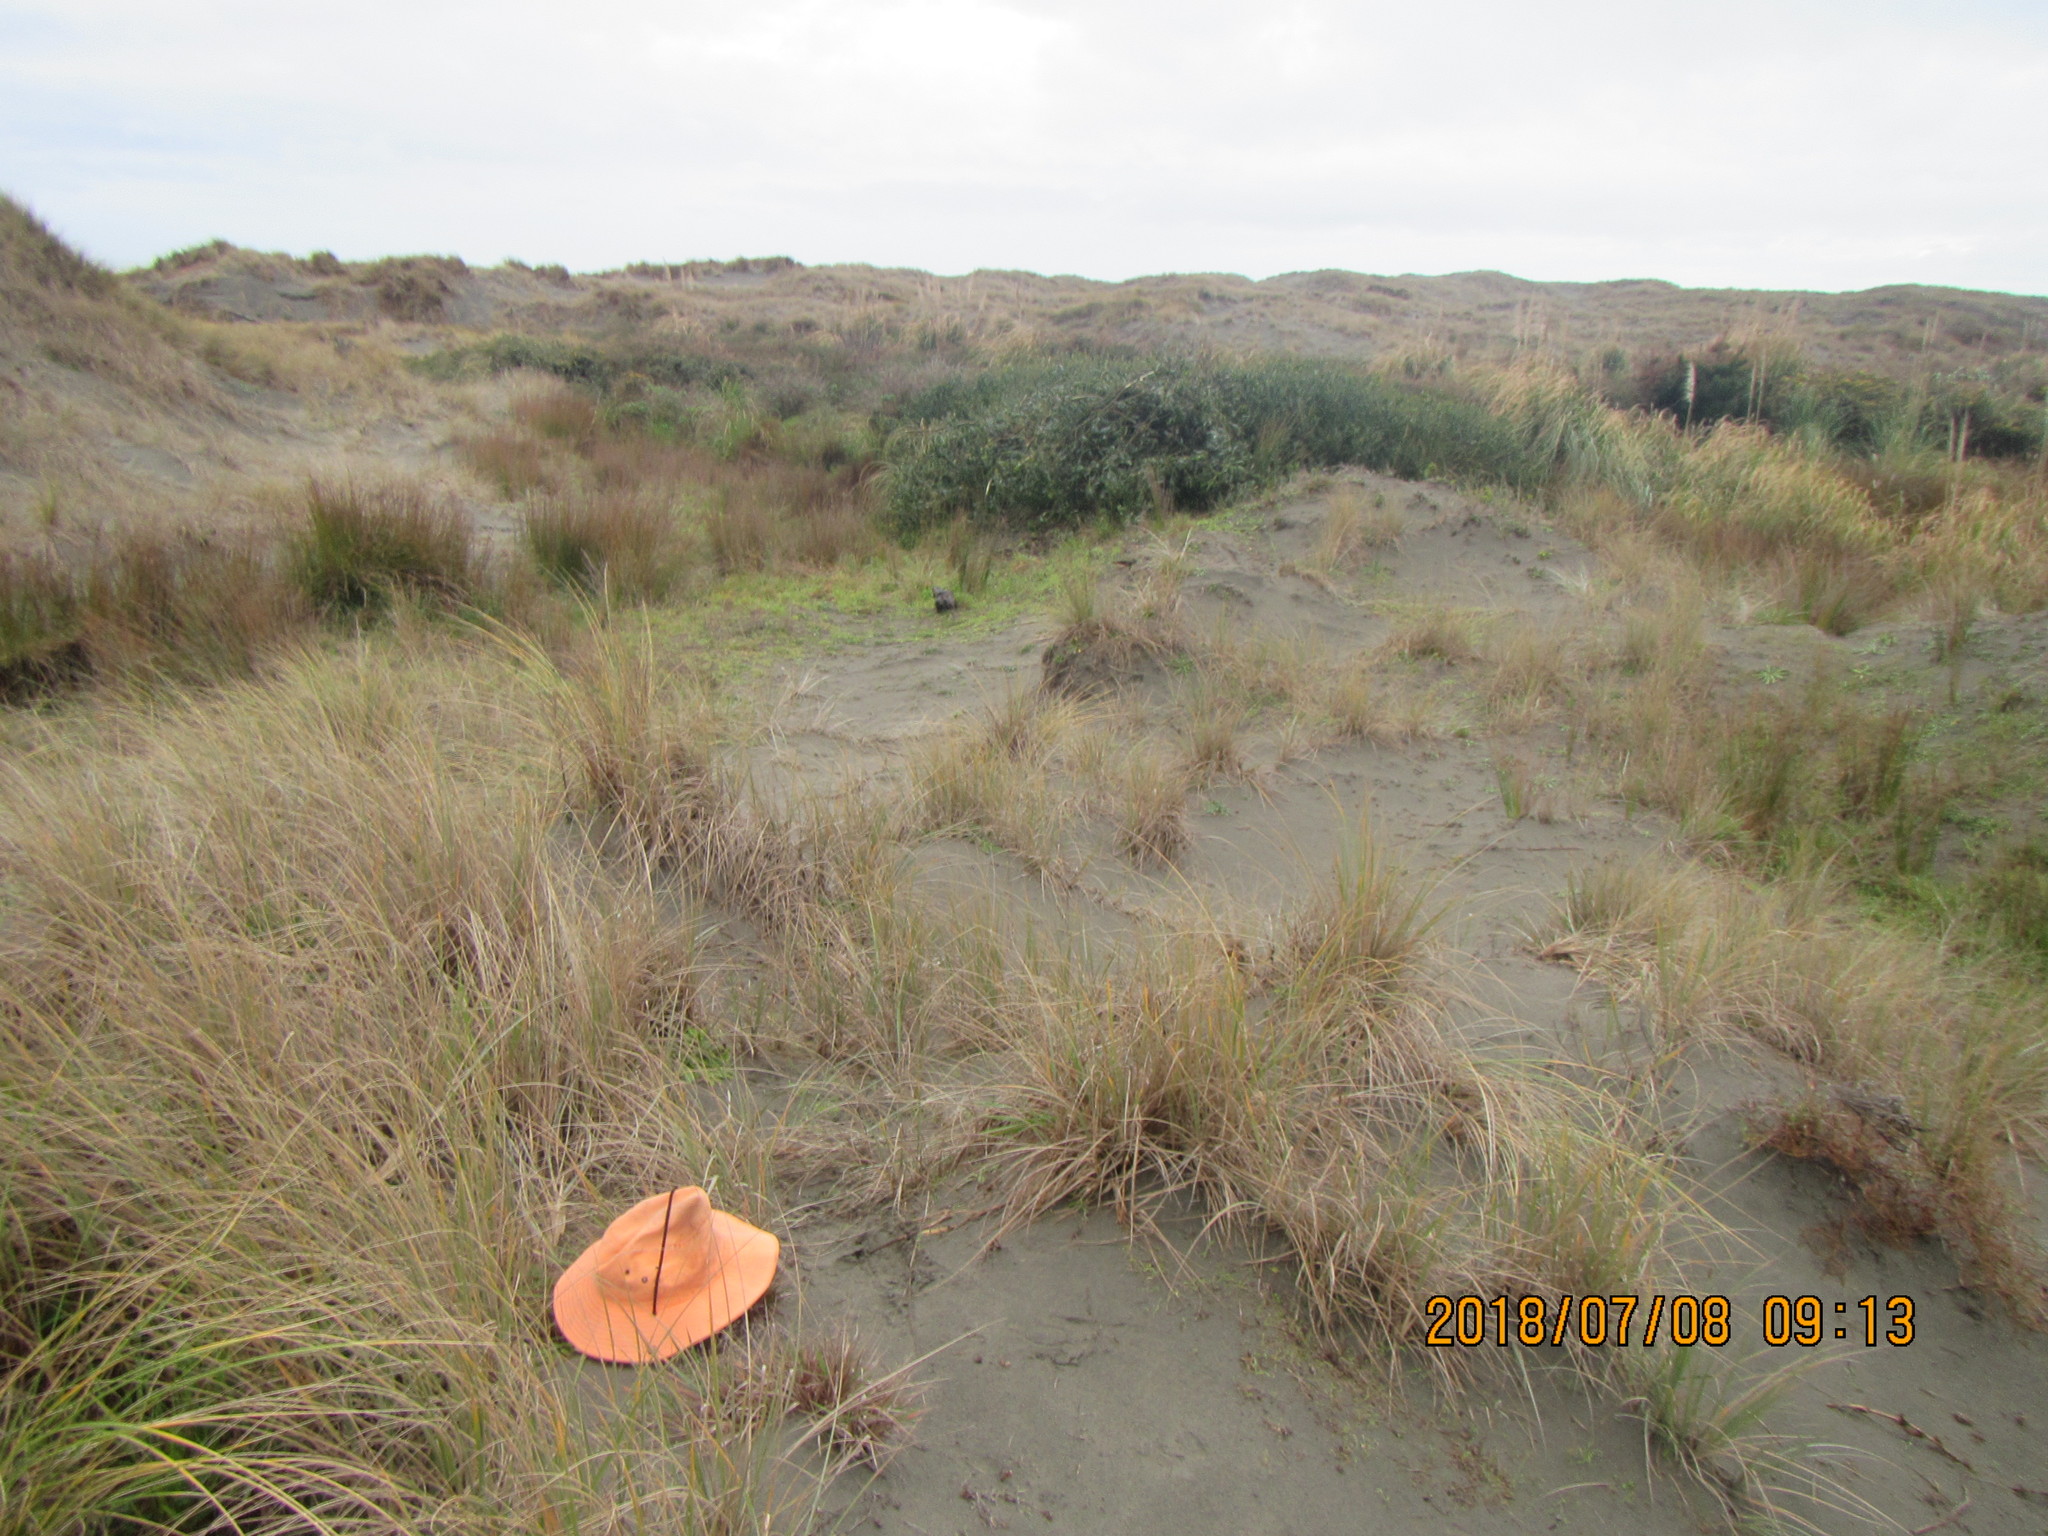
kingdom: Animalia
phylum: Arthropoda
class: Arachnida
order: Araneae
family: Theridiidae
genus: Latrodectus
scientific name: Latrodectus katipo
